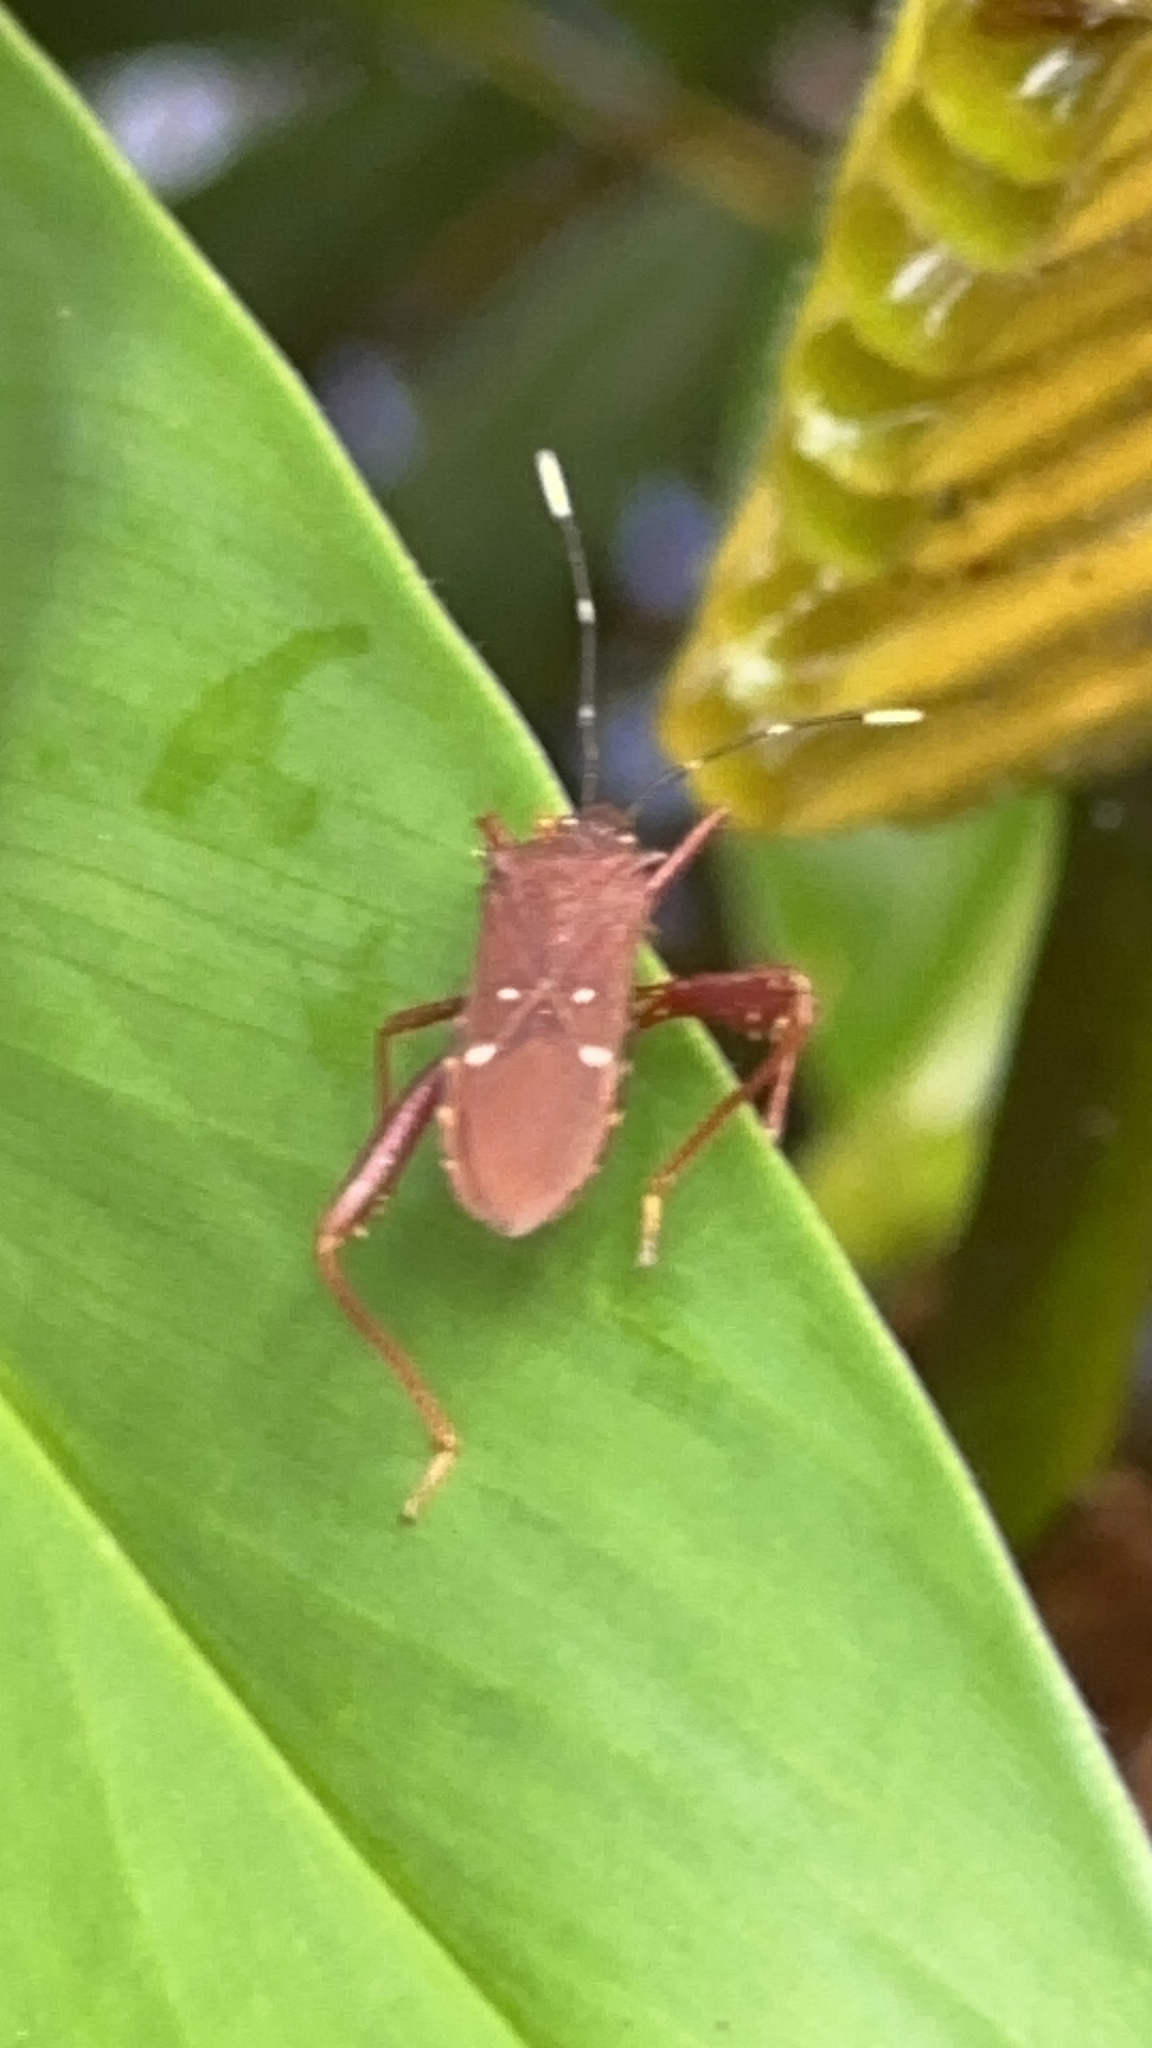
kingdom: Animalia
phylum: Arthropoda
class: Insecta
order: Hemiptera
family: Coreidae
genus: Leptoscelis
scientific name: Leptoscelis quadrisignatus
